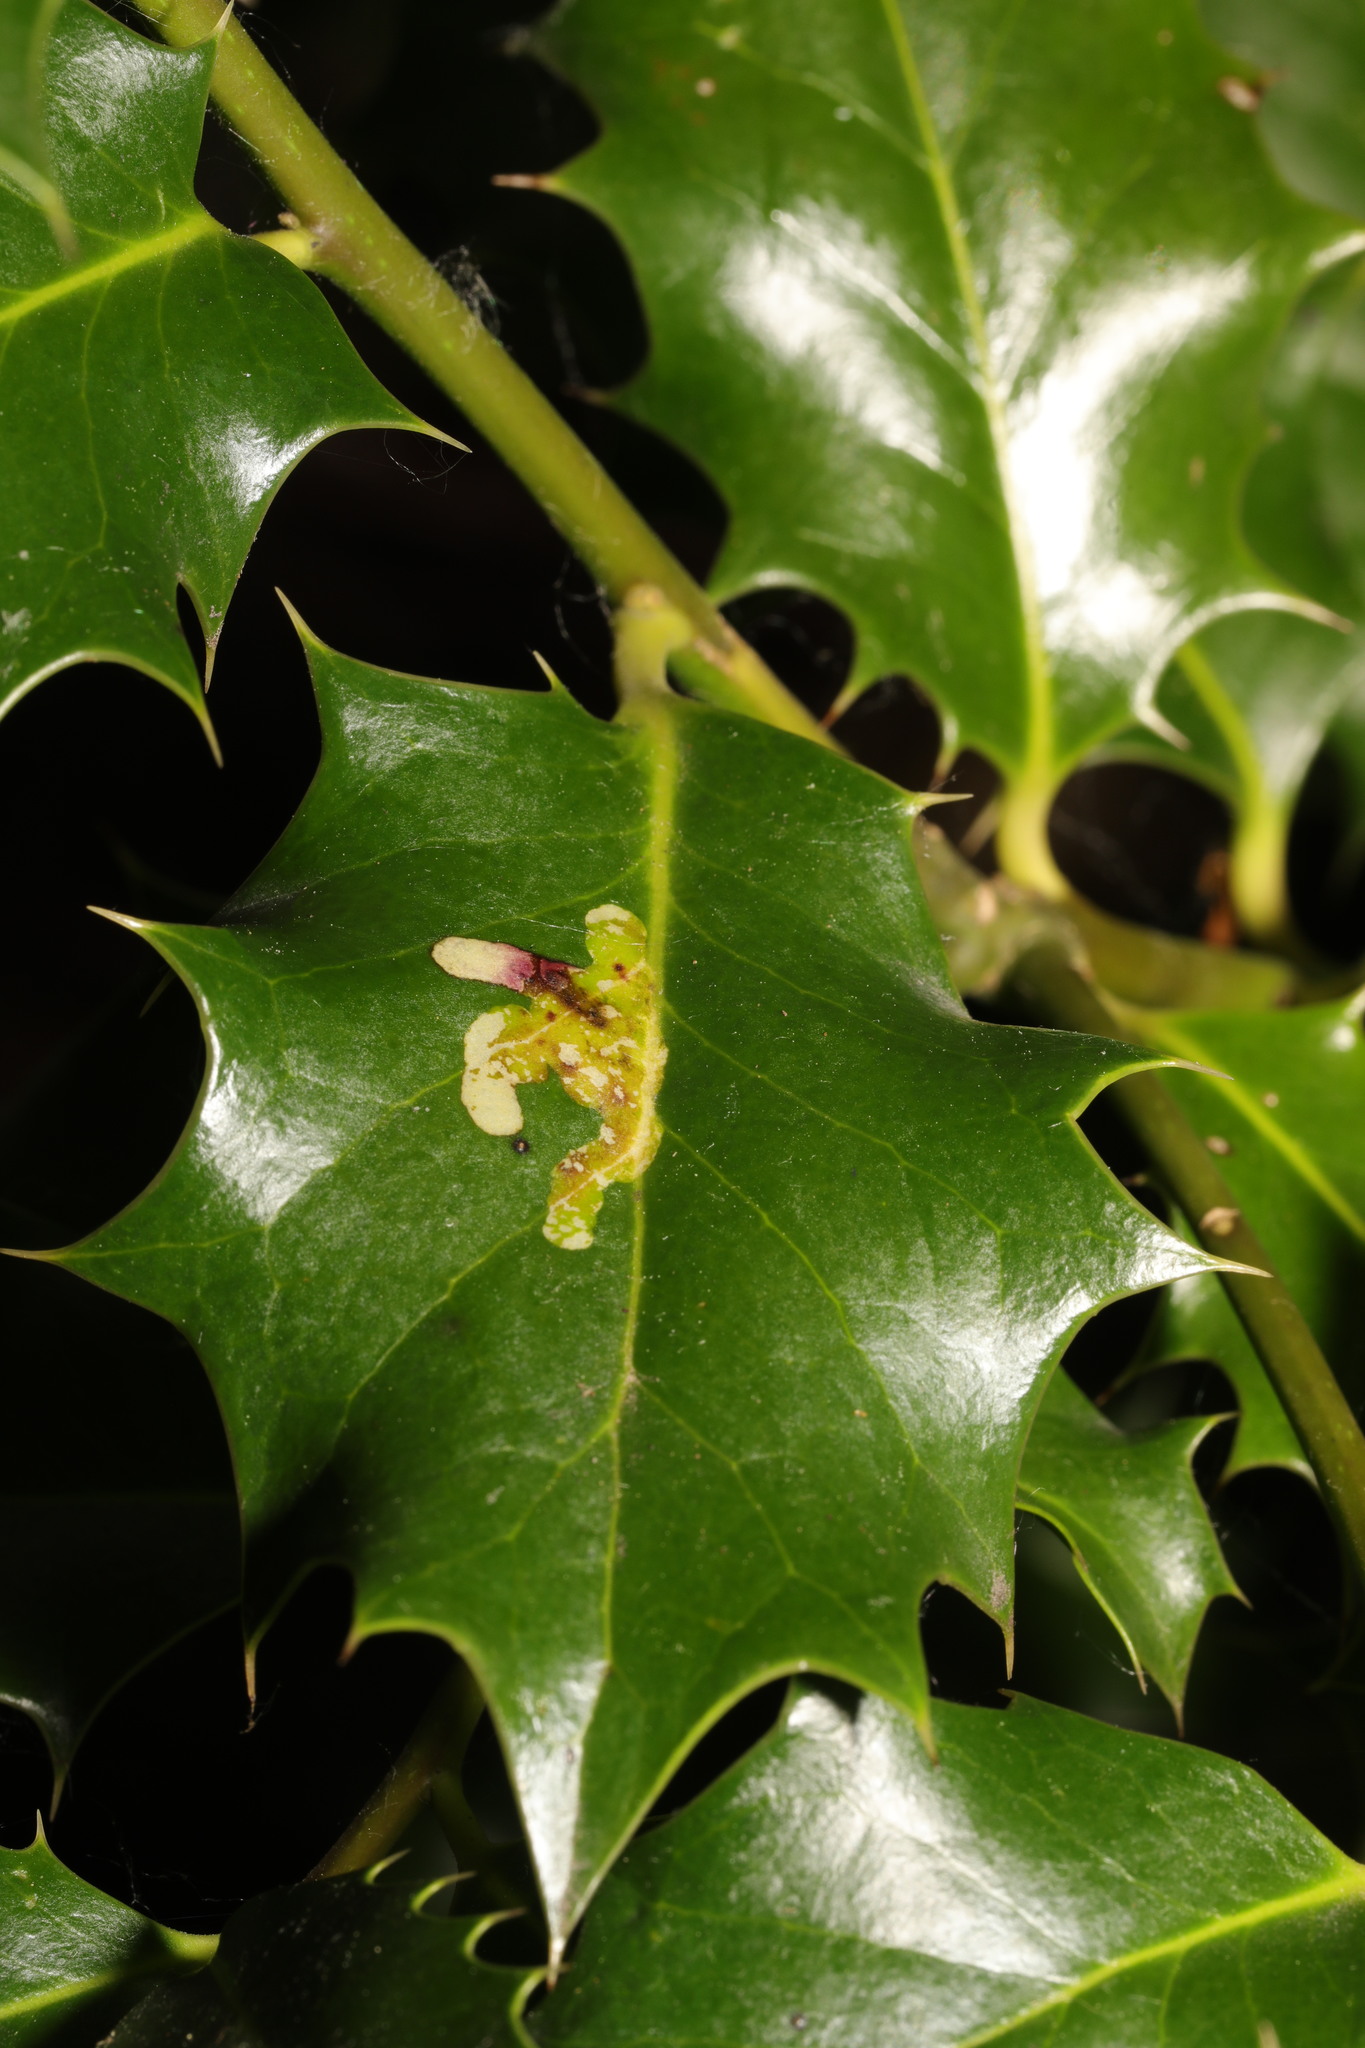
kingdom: Animalia
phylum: Arthropoda
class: Insecta
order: Diptera
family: Agromyzidae
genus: Phytomyza
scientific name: Phytomyza ilicis
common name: Holly leafminer
